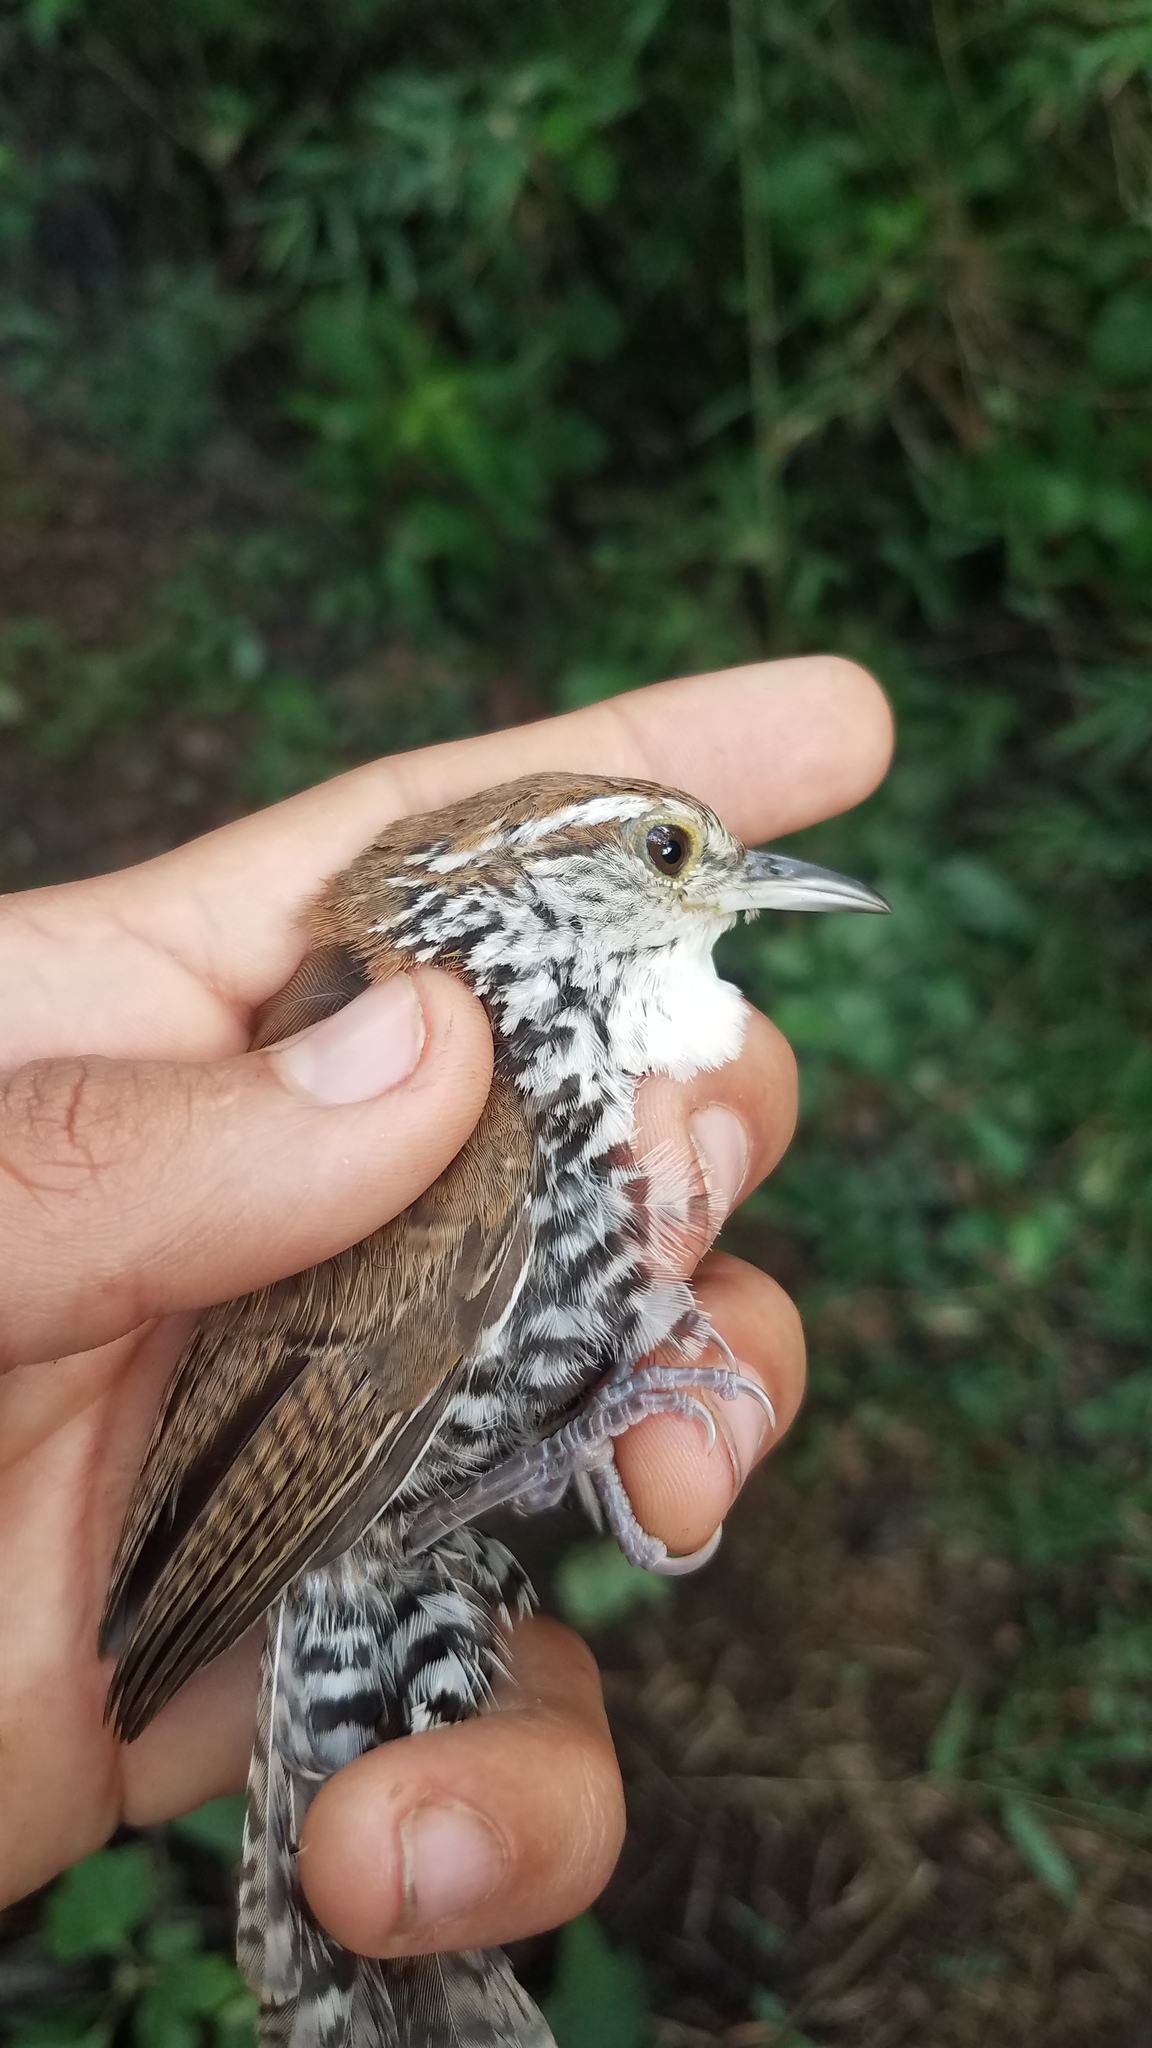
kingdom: Animalia
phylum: Chordata
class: Aves
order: Passeriformes
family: Troglodytidae
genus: Thryophilus
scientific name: Thryophilus pleurostictus
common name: Banded wren
